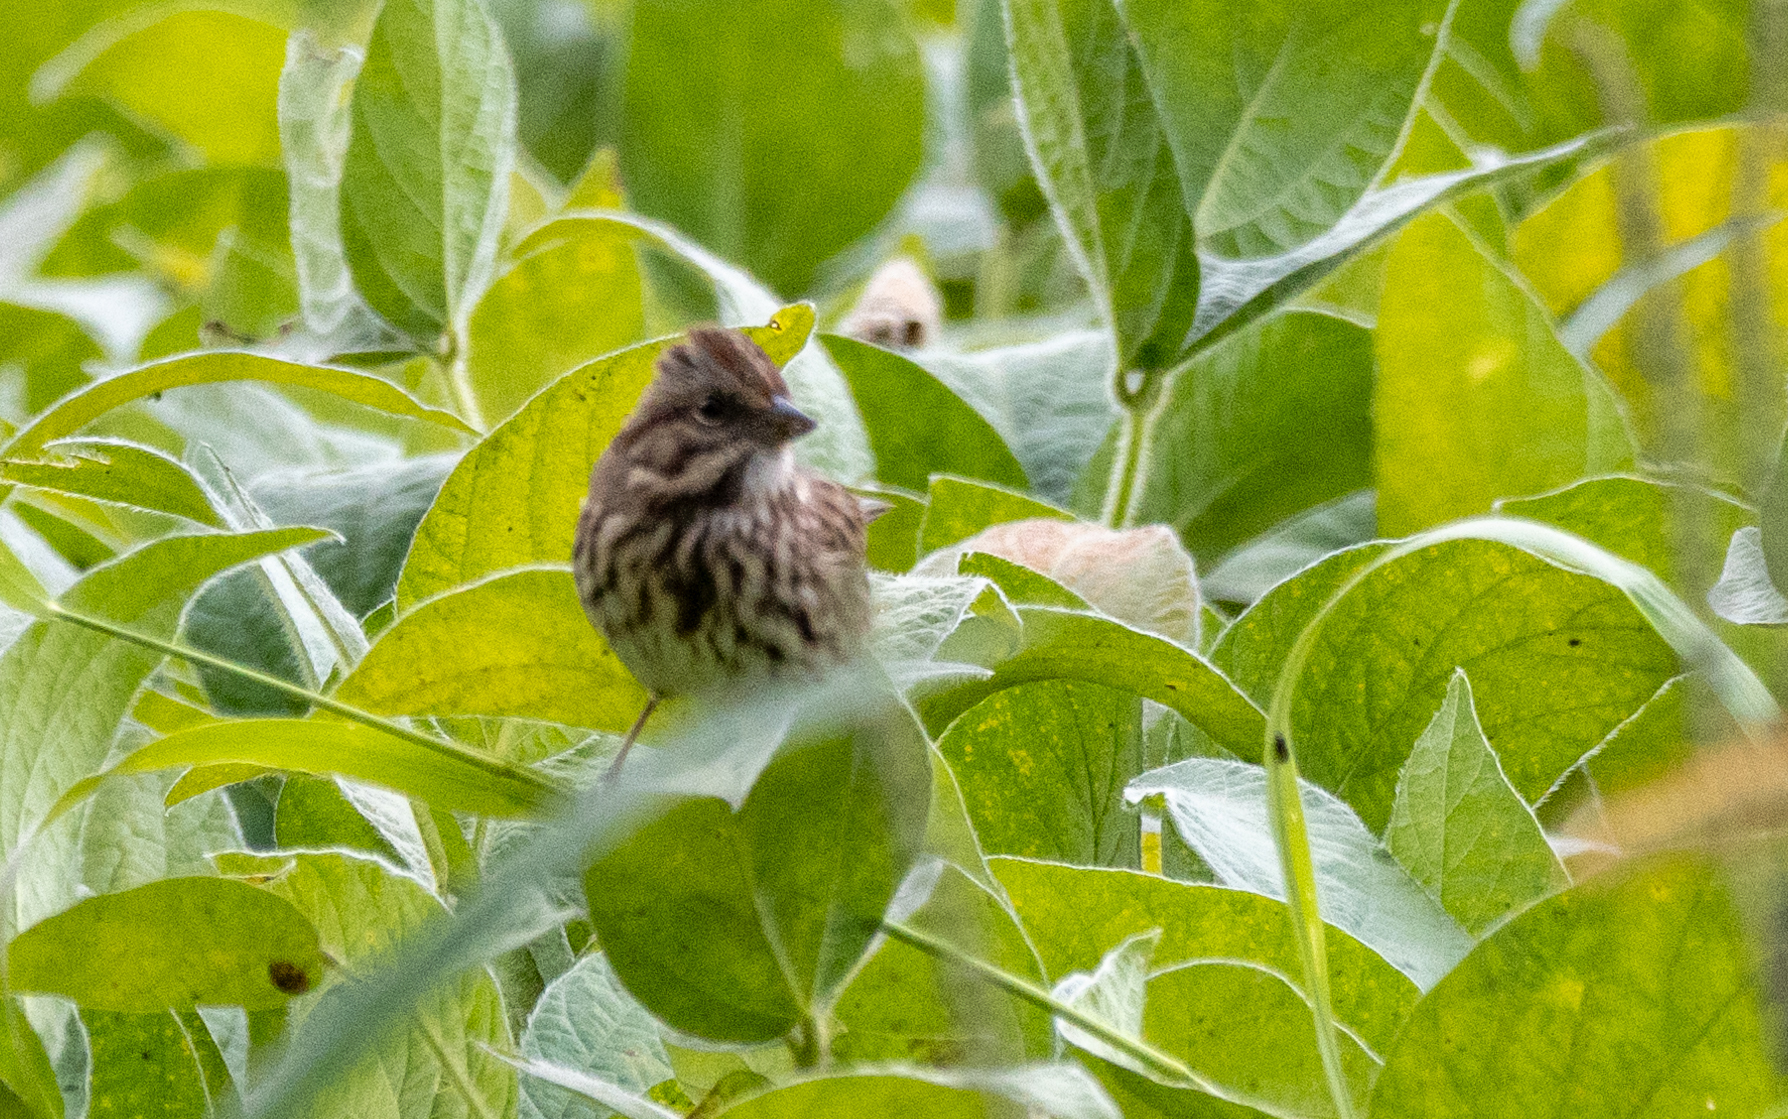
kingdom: Animalia
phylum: Chordata
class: Aves
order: Passeriformes
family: Passerellidae
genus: Melospiza
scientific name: Melospiza melodia
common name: Song sparrow
